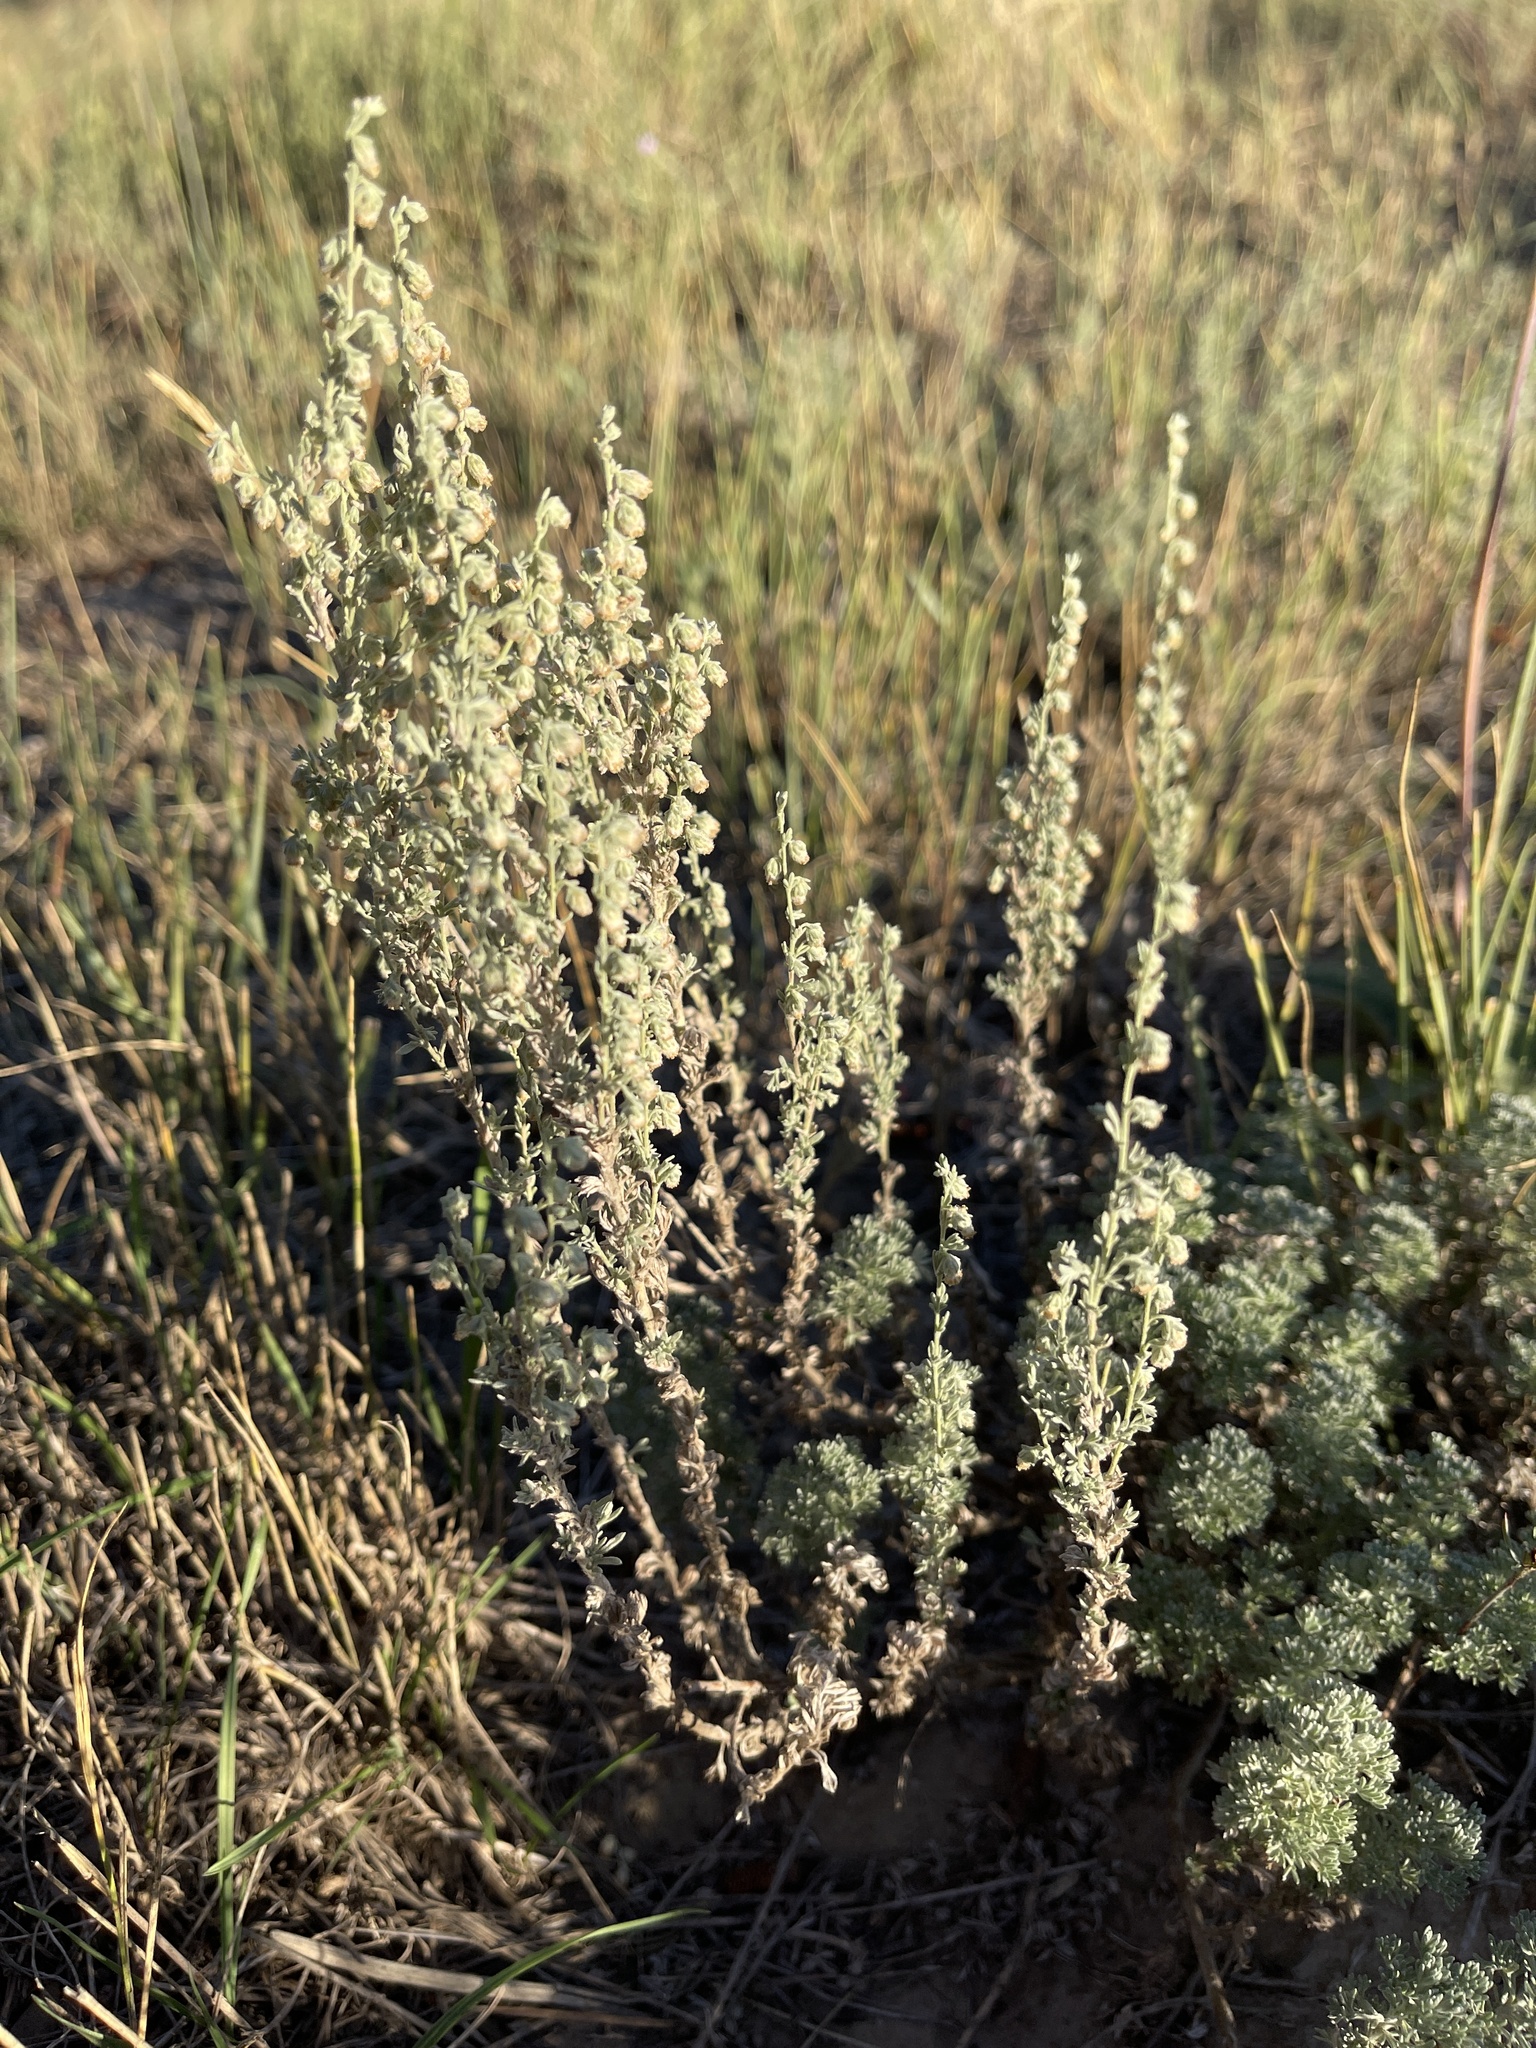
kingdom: Plantae
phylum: Tracheophyta
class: Magnoliopsida
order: Asterales
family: Asteraceae
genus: Artemisia
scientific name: Artemisia frigida
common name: Prairie sagewort
